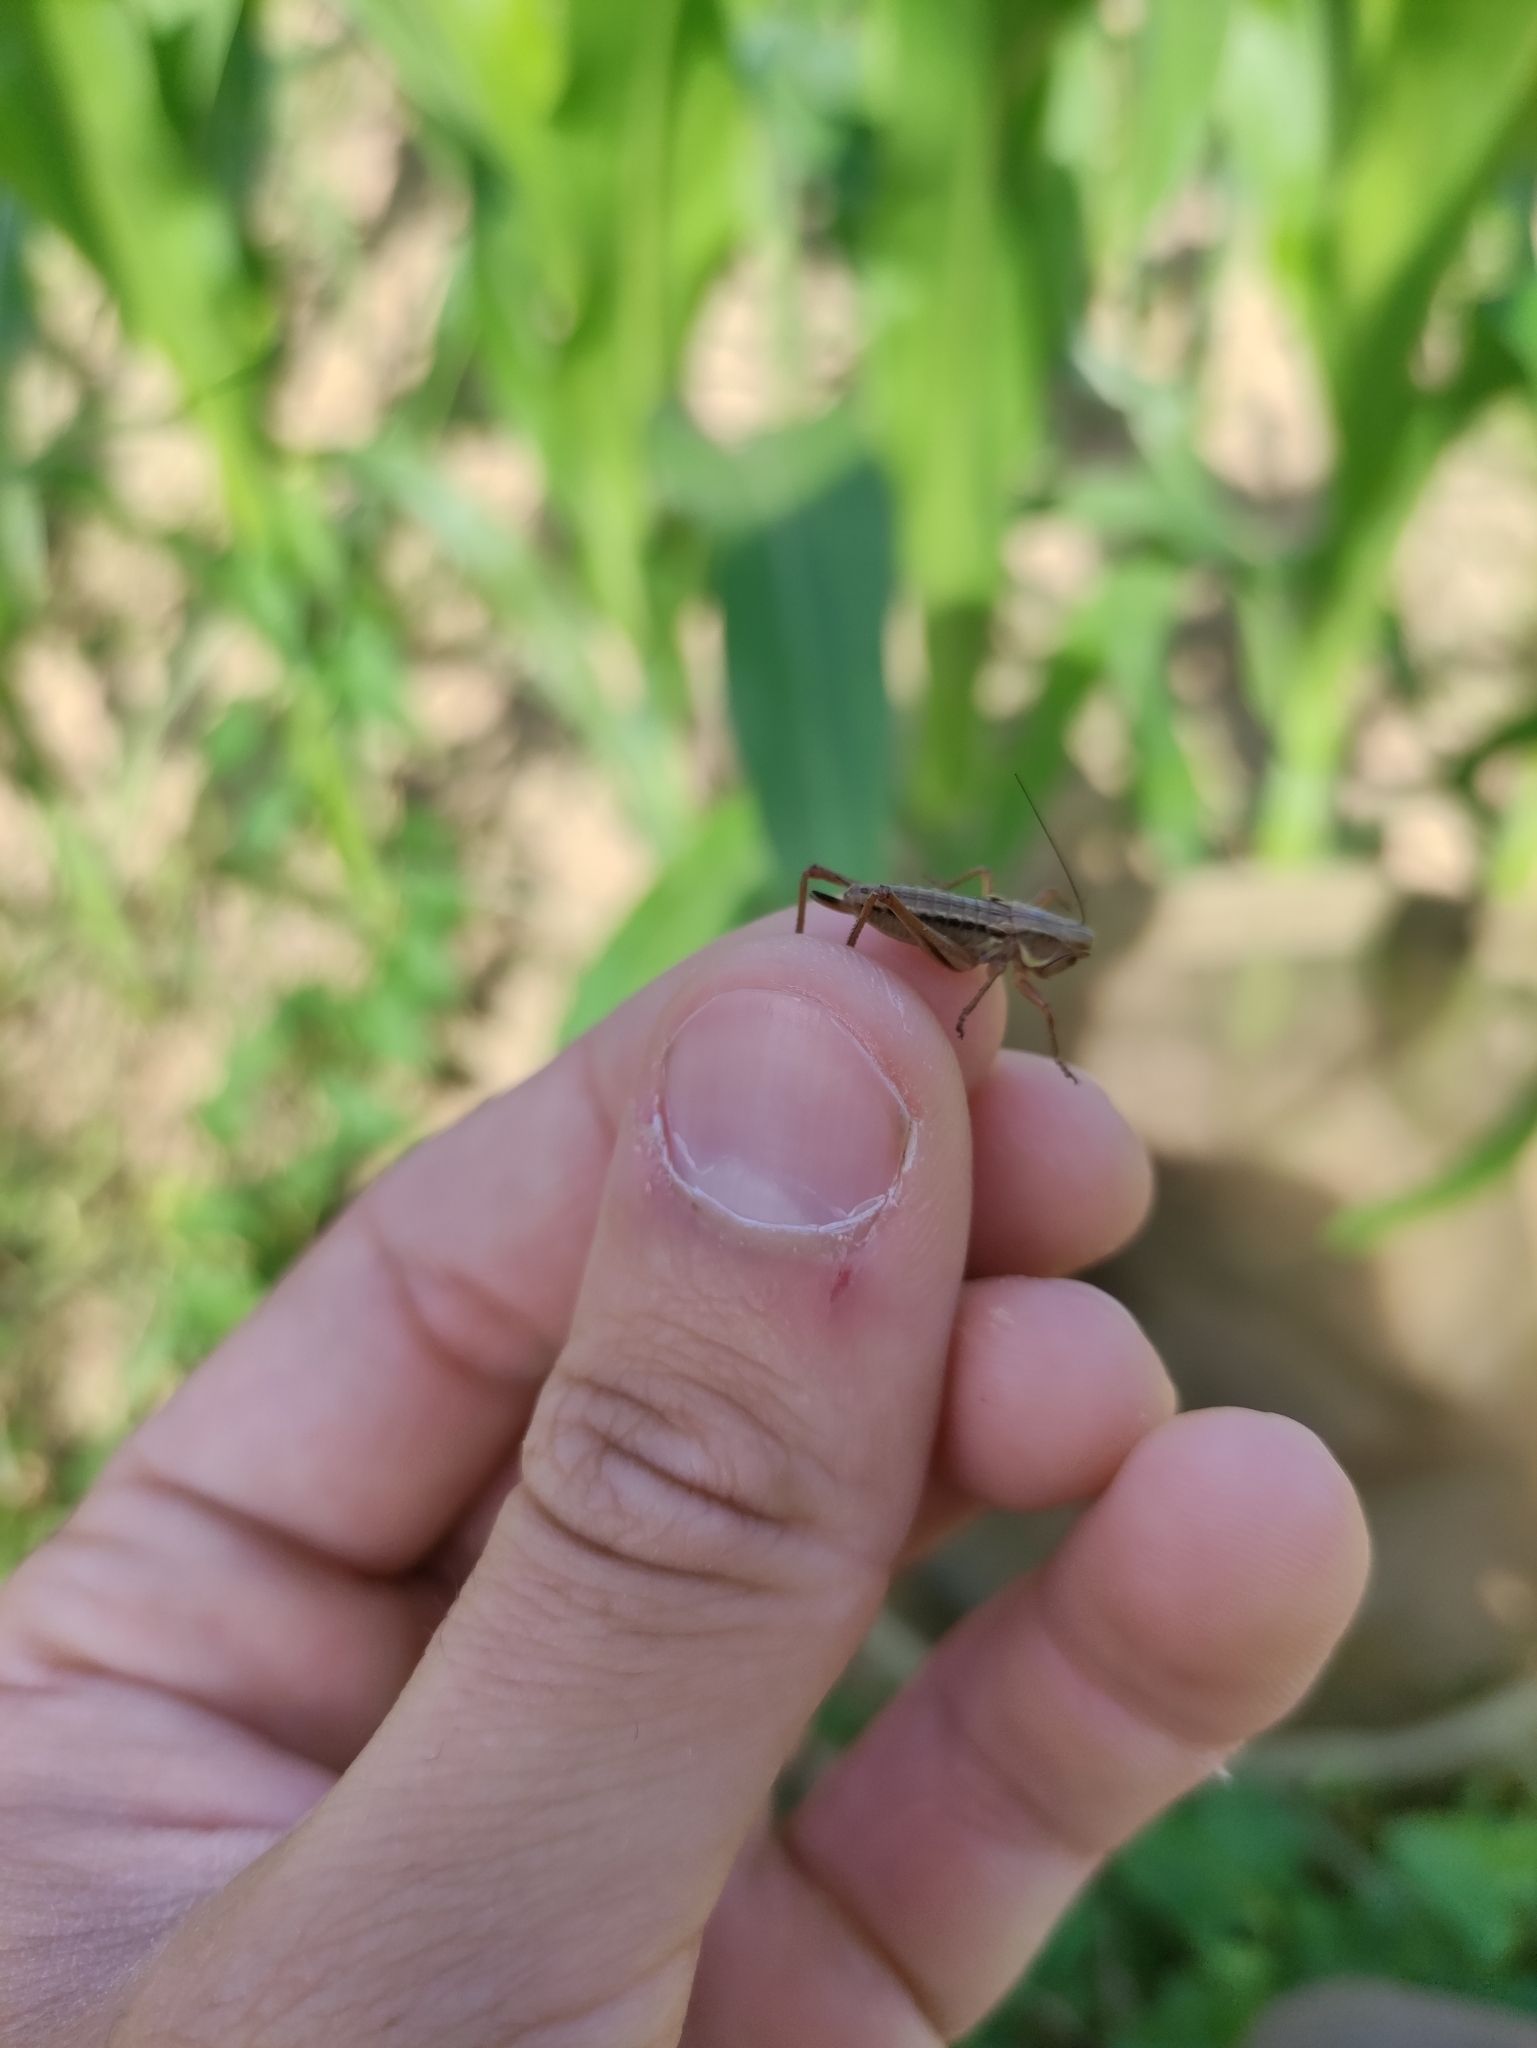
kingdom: Animalia
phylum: Arthropoda
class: Insecta
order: Orthoptera
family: Tettigoniidae
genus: Roeseliana
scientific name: Roeseliana roeselii
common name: Roesel's bush cricket
